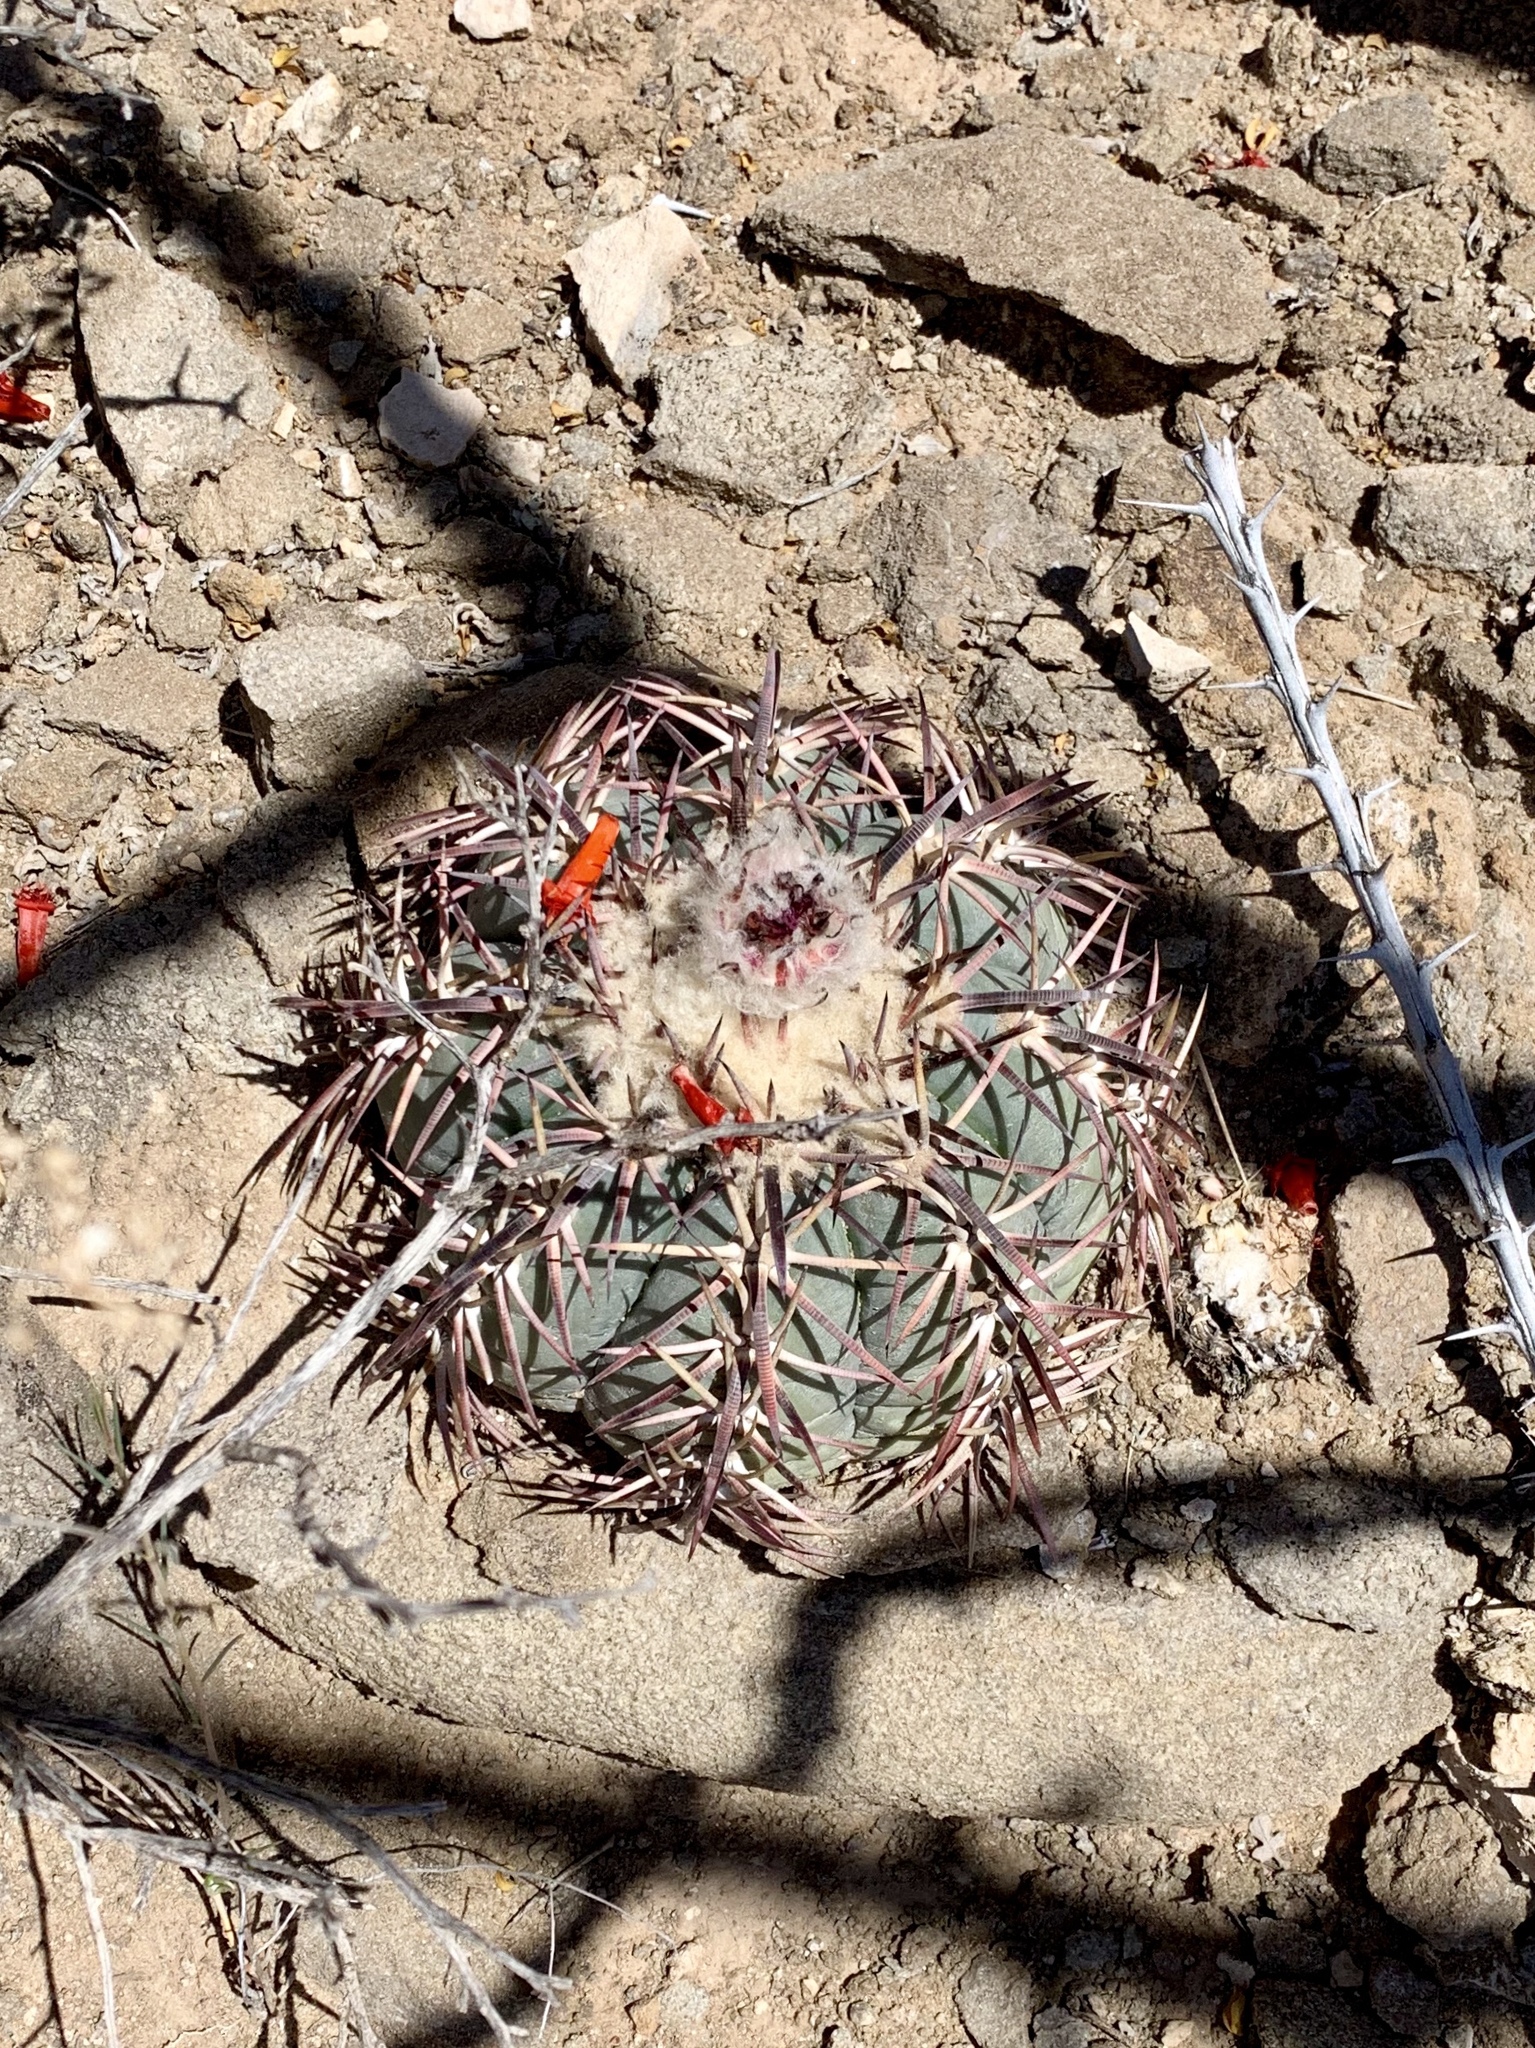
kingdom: Plantae
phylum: Tracheophyta
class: Magnoliopsida
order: Caryophyllales
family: Cactaceae
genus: Echinocactus
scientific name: Echinocactus horizonthalonius
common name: Devilshead
